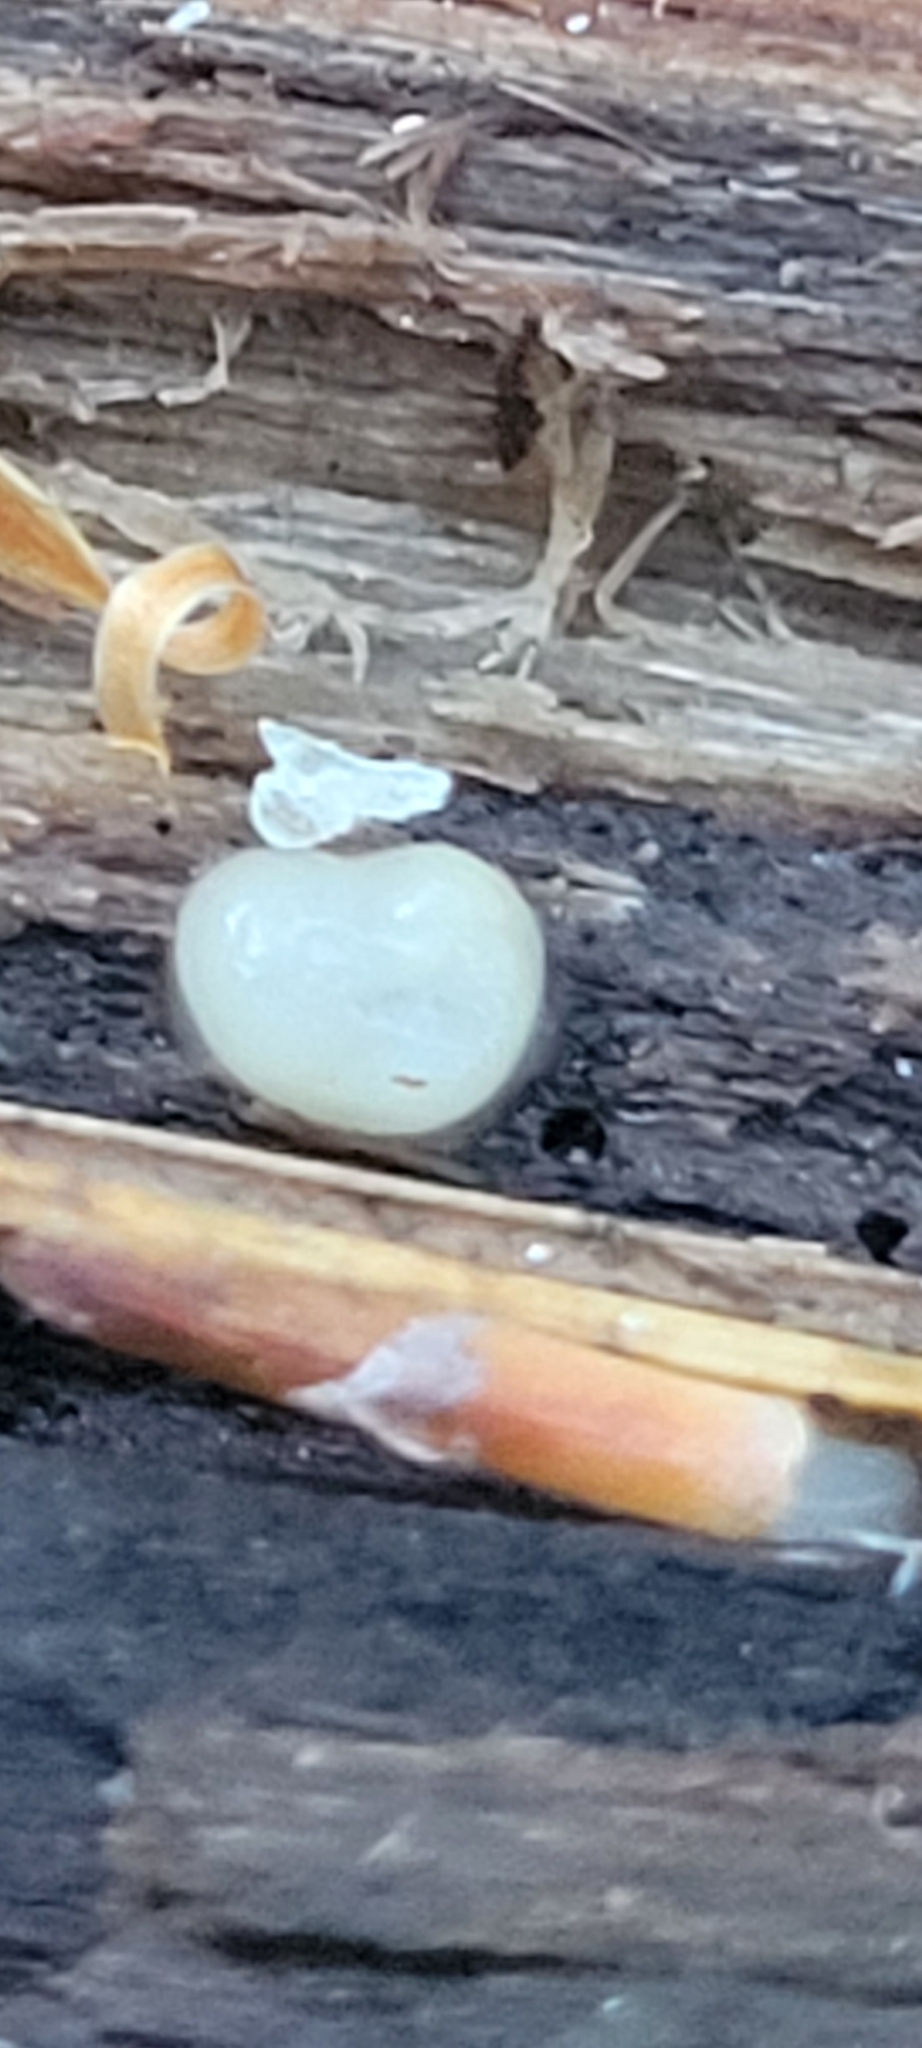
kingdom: Fungi
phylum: Basidiomycota
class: Atractiellomycetes
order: Atractiellales
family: Phleogenaceae
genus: Helicogloea
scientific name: Helicogloea compressa
